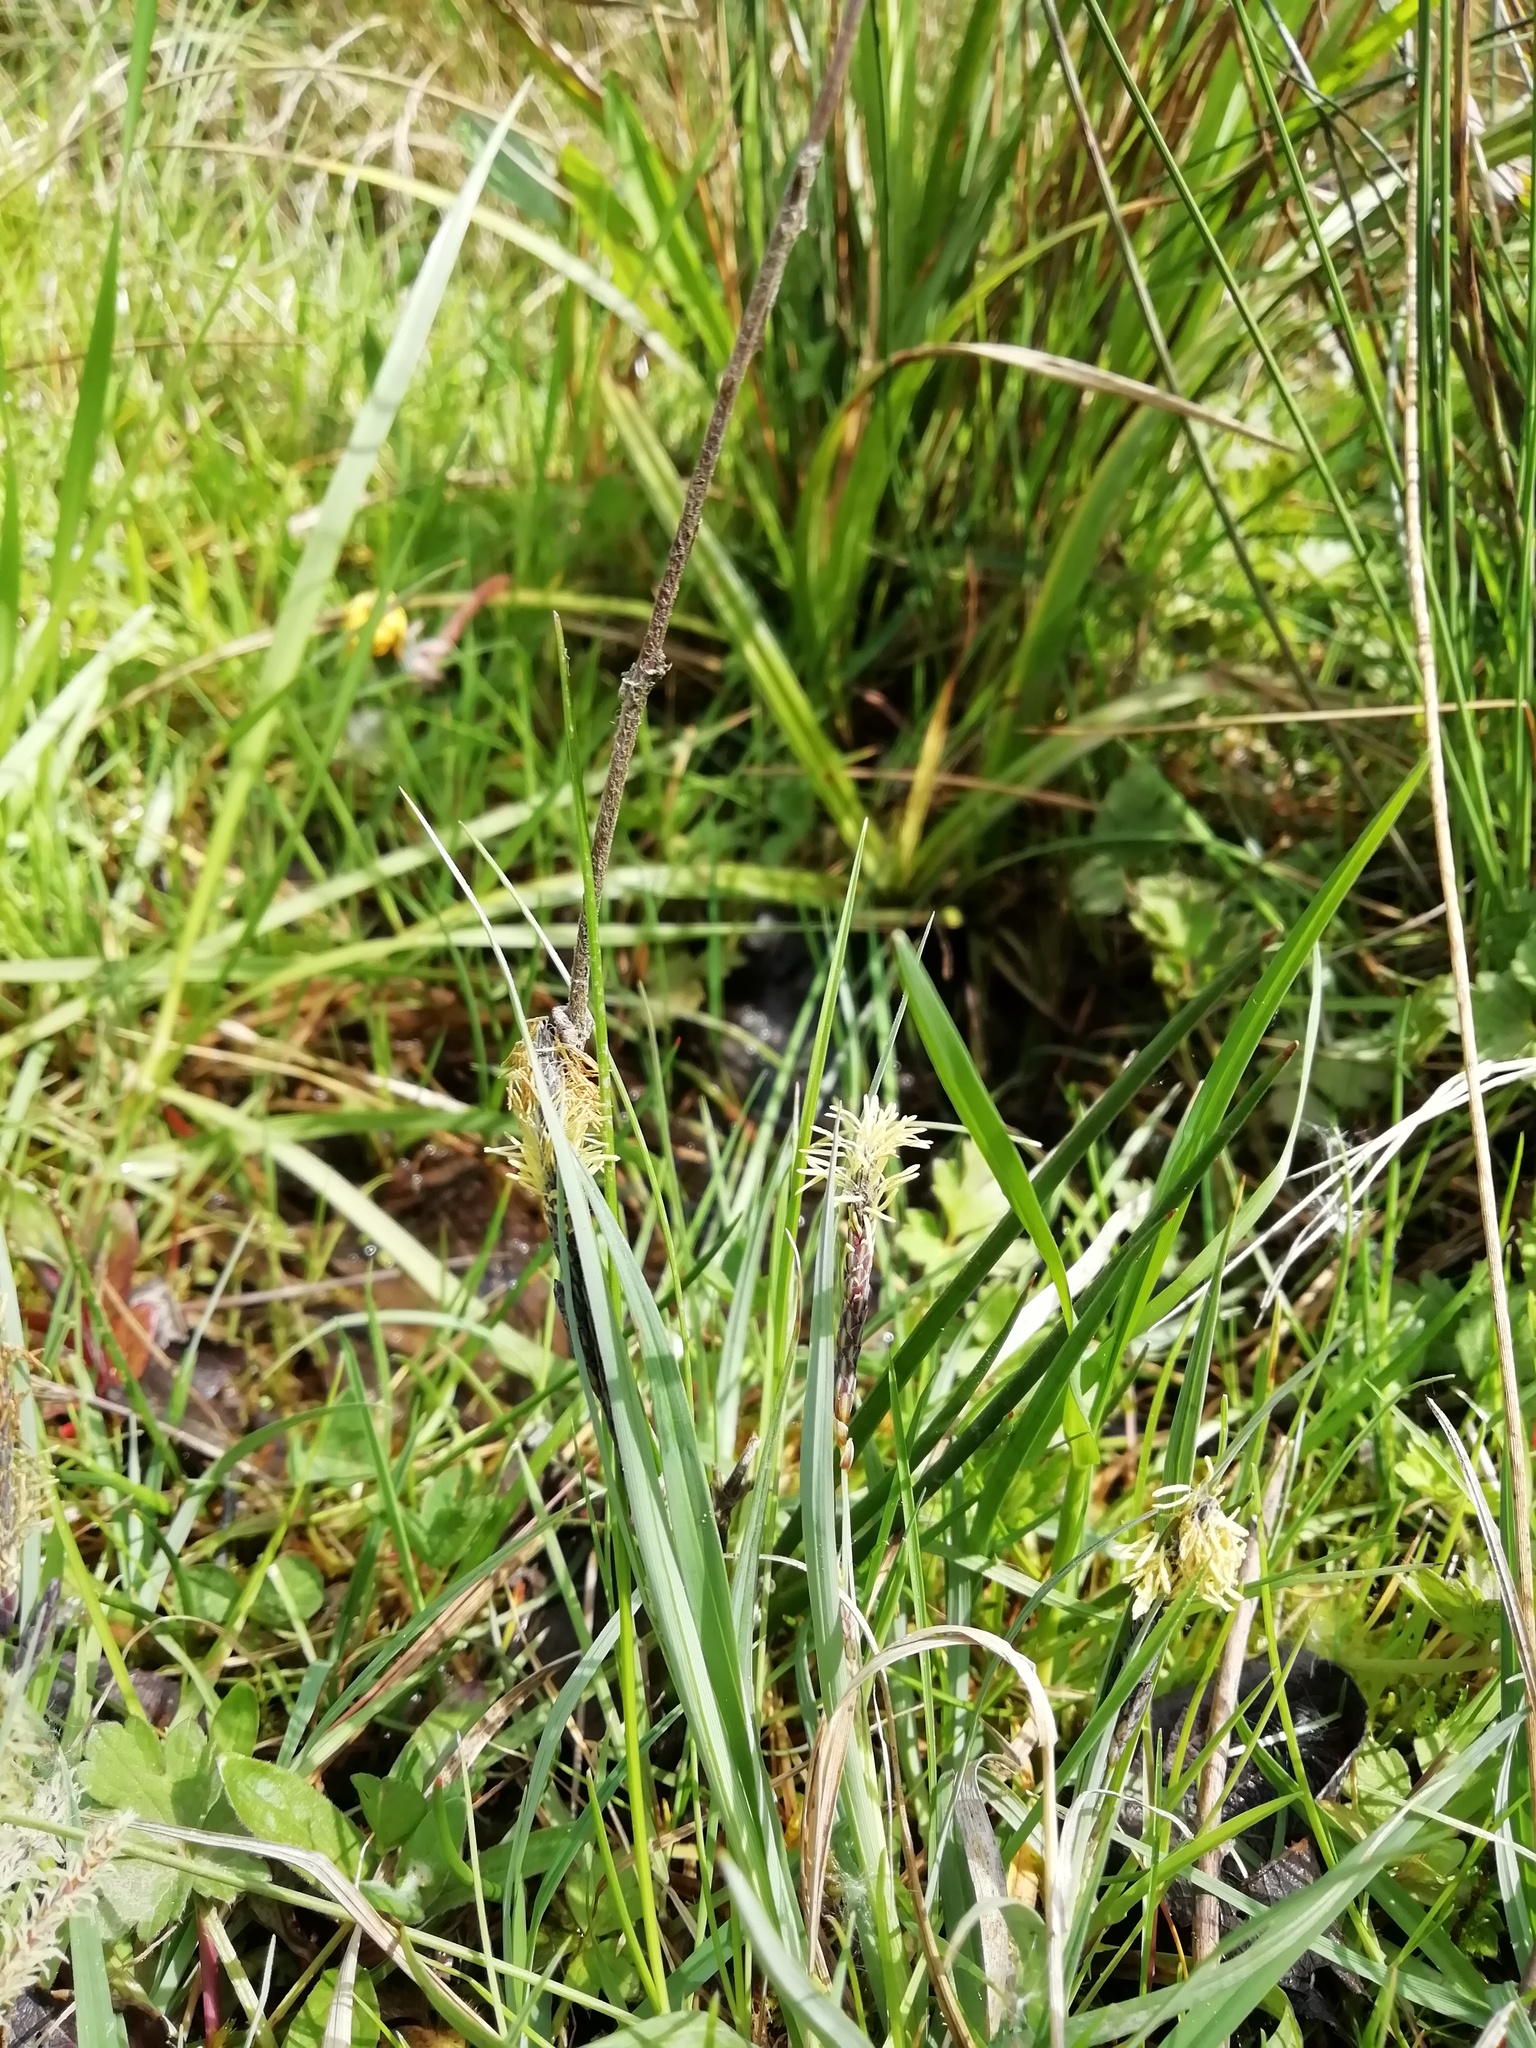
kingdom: Plantae
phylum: Tracheophyta
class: Liliopsida
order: Poales
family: Cyperaceae
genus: Carex
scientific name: Carex flacca
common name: Glaucous sedge
